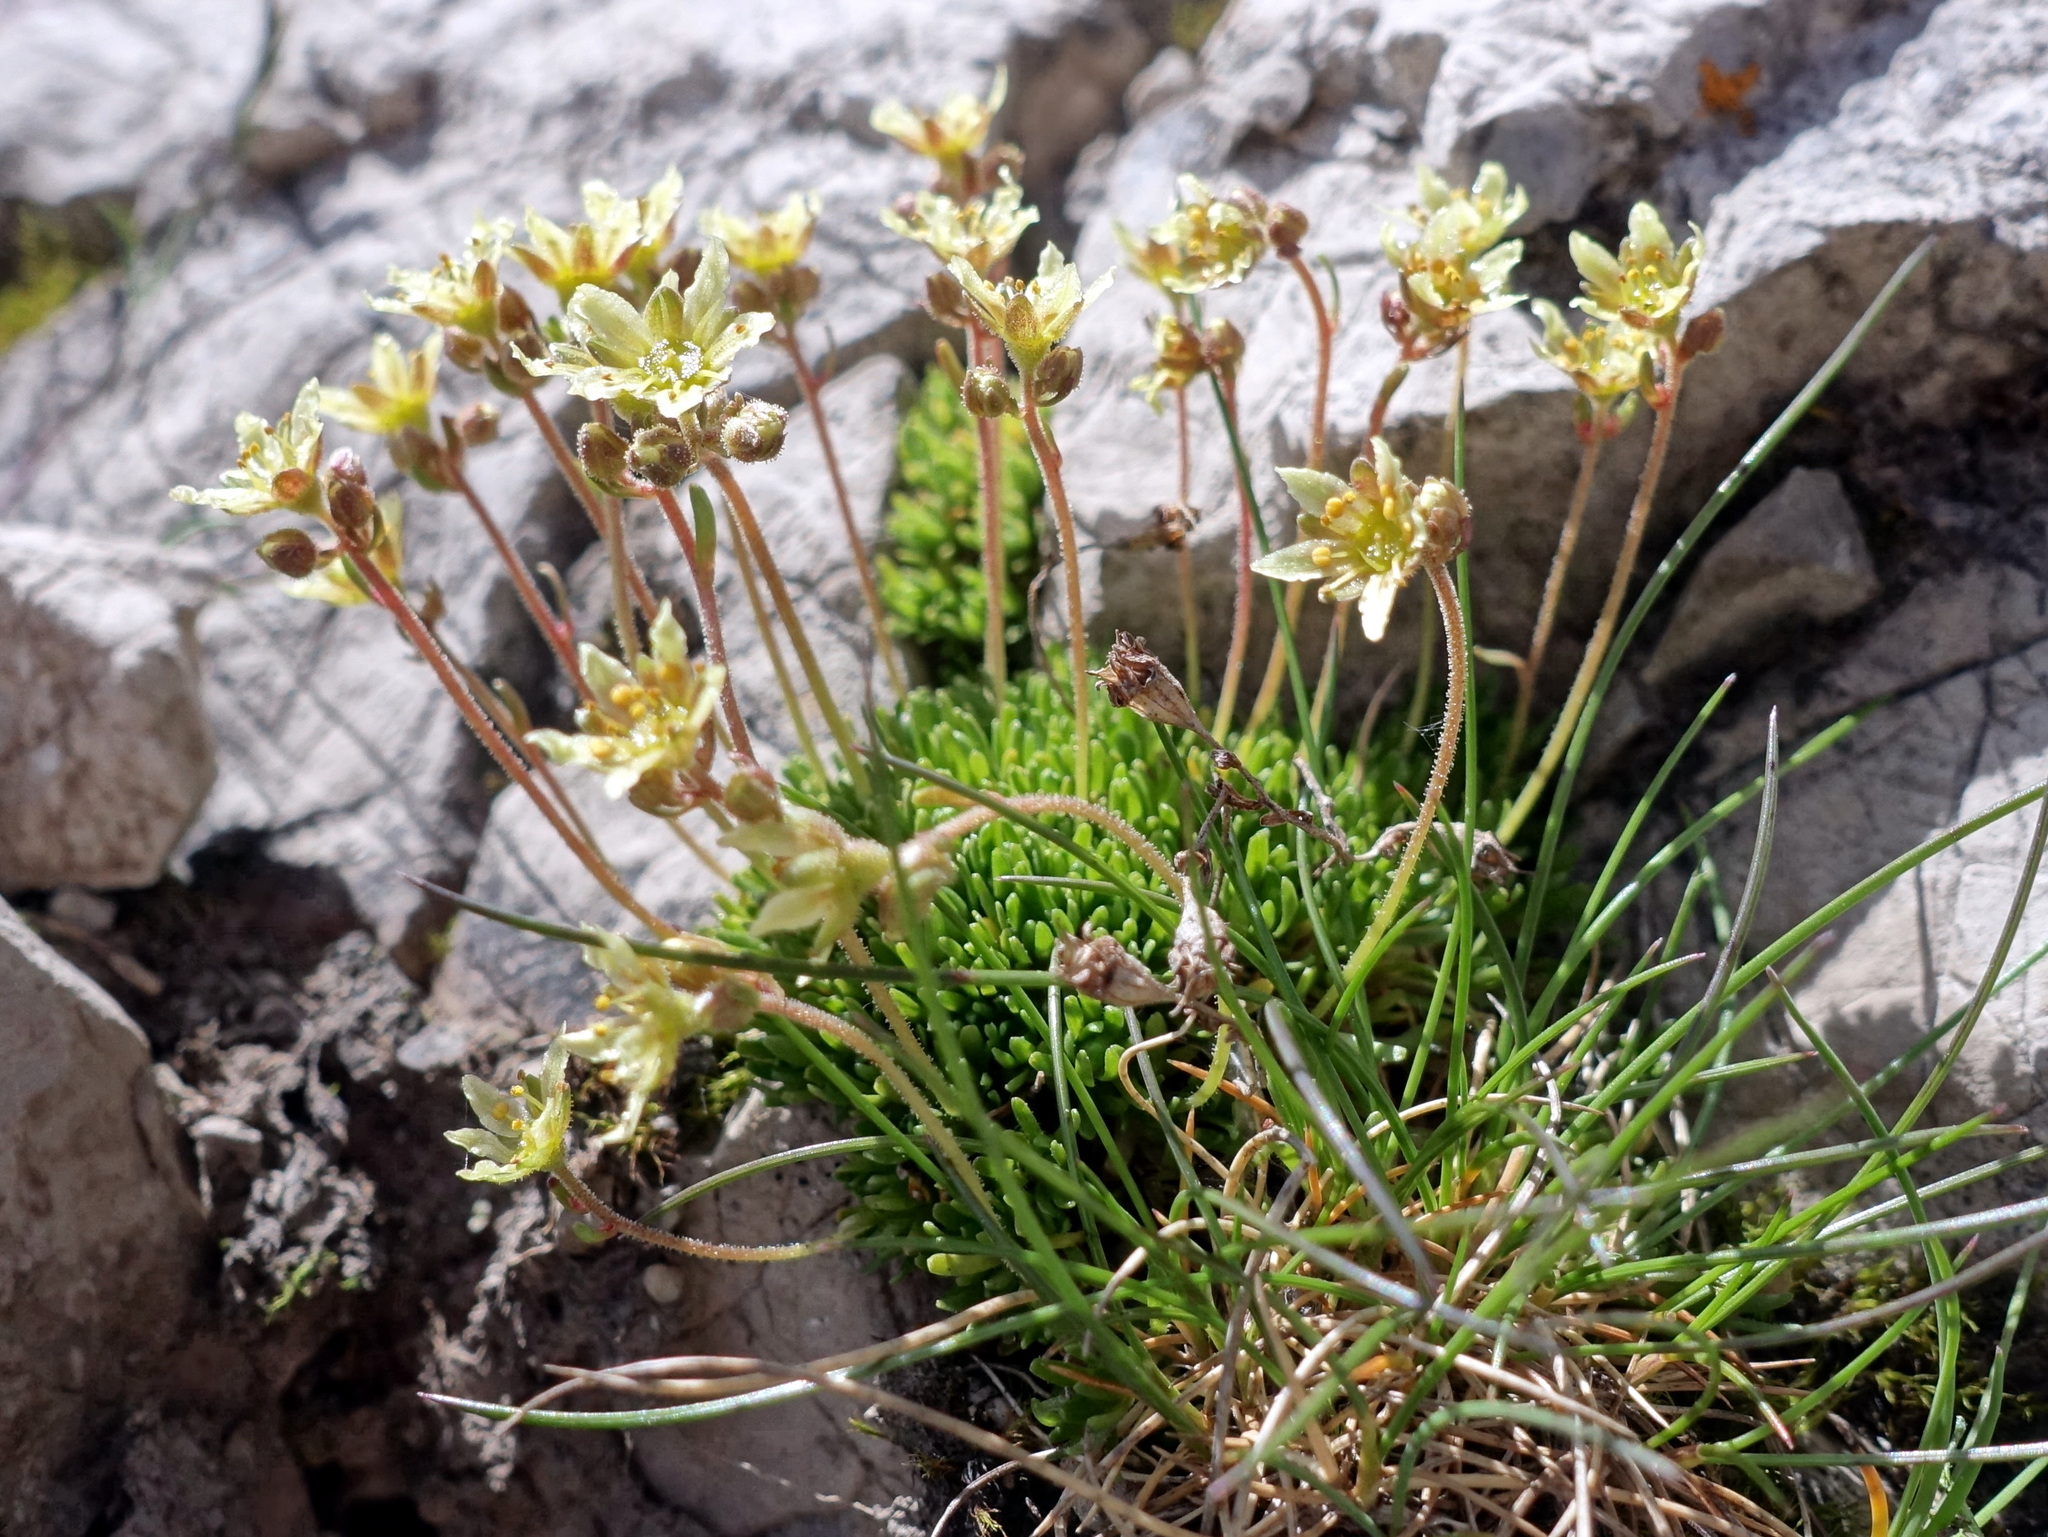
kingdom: Plantae
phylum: Tracheophyta
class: Magnoliopsida
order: Saxifragales
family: Saxifragaceae
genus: Saxifraga
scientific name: Saxifraga moschata
